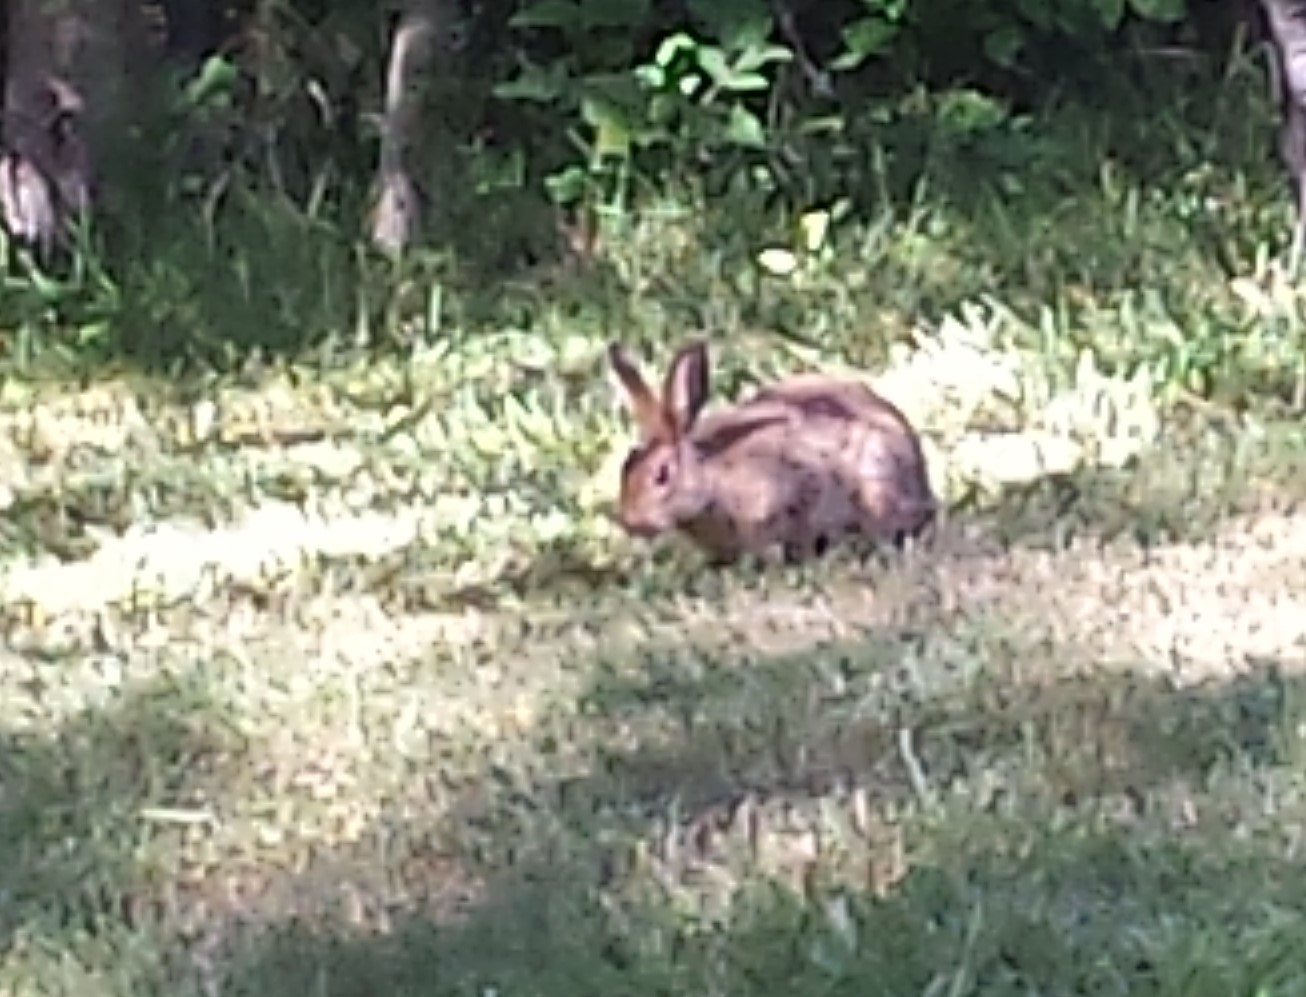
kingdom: Animalia
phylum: Chordata
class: Mammalia
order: Lagomorpha
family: Leporidae
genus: Lepus
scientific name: Lepus americanus
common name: Snowshoe hare
